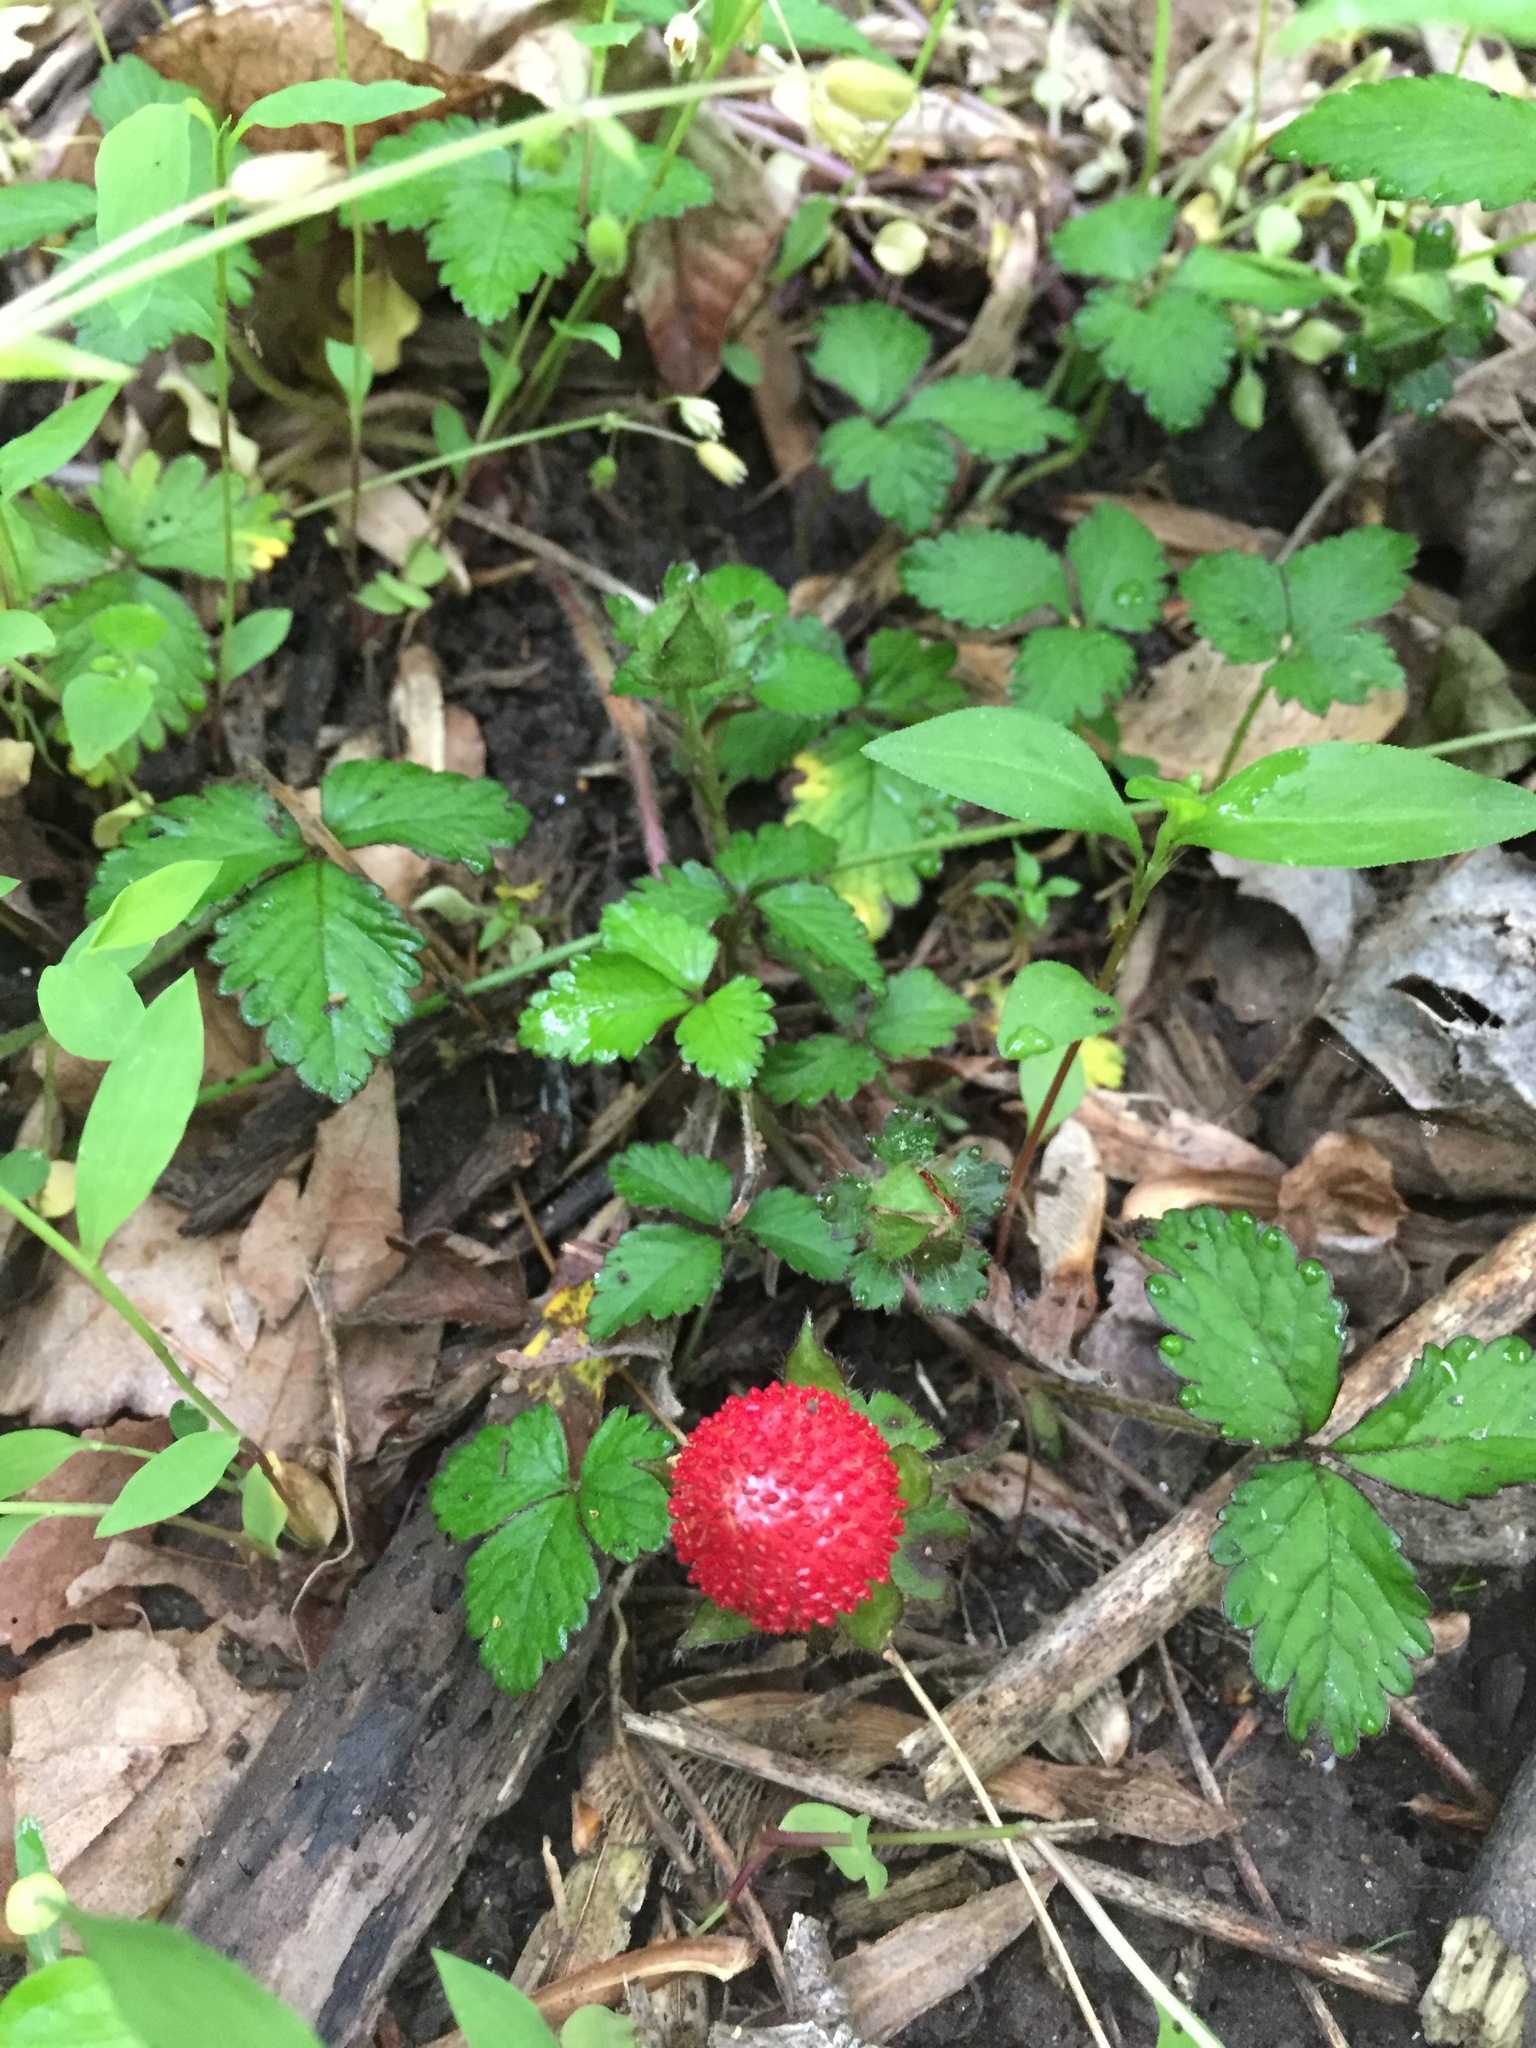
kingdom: Plantae
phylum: Tracheophyta
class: Magnoliopsida
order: Rosales
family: Rosaceae
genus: Potentilla
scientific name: Potentilla indica
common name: Yellow-flowered strawberry
